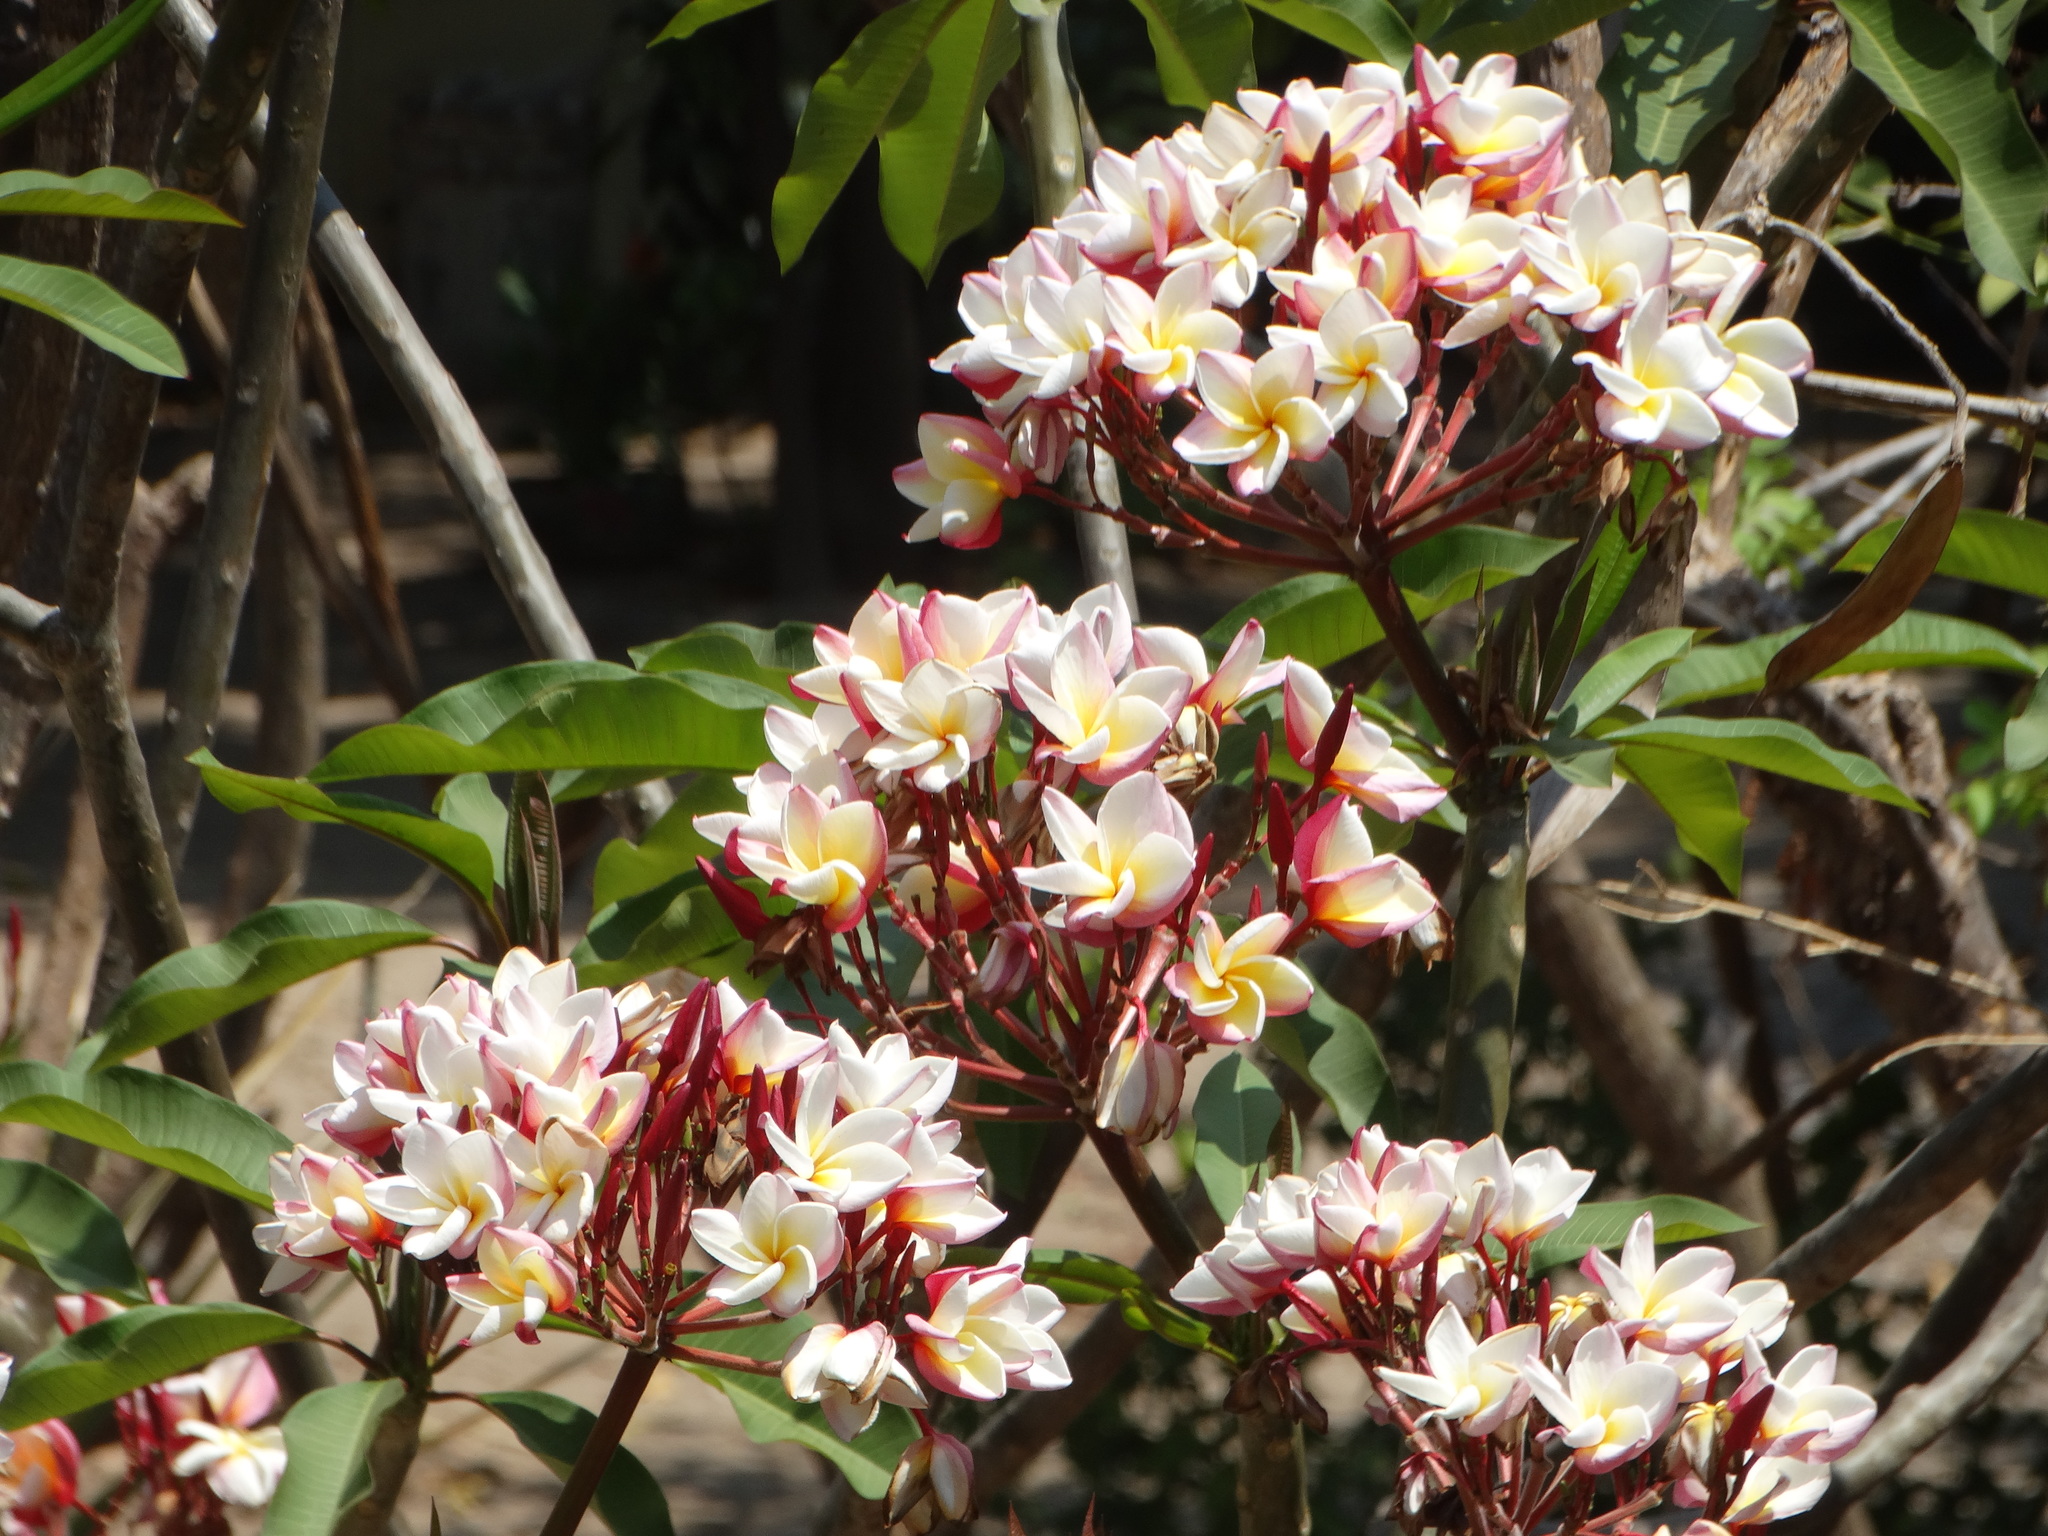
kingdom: Plantae
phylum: Tracheophyta
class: Magnoliopsida
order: Gentianales
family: Apocynaceae
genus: Plumeria
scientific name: Plumeria rubra
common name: Pagoda-tree
